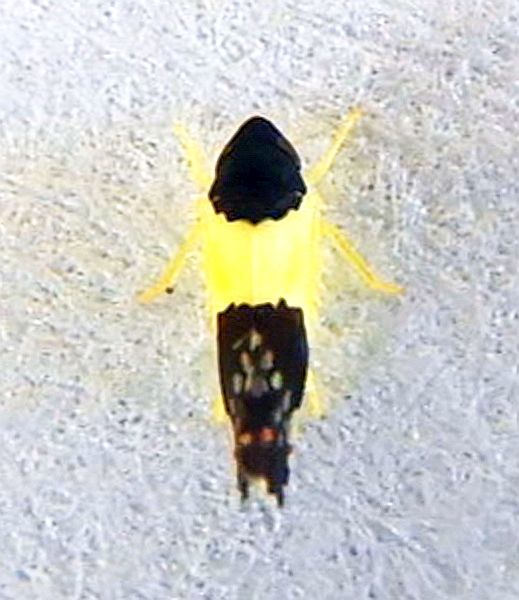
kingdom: Animalia
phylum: Arthropoda
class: Insecta
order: Hemiptera
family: Cicadellidae
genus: Henribautia
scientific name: Henribautia nigricephala
